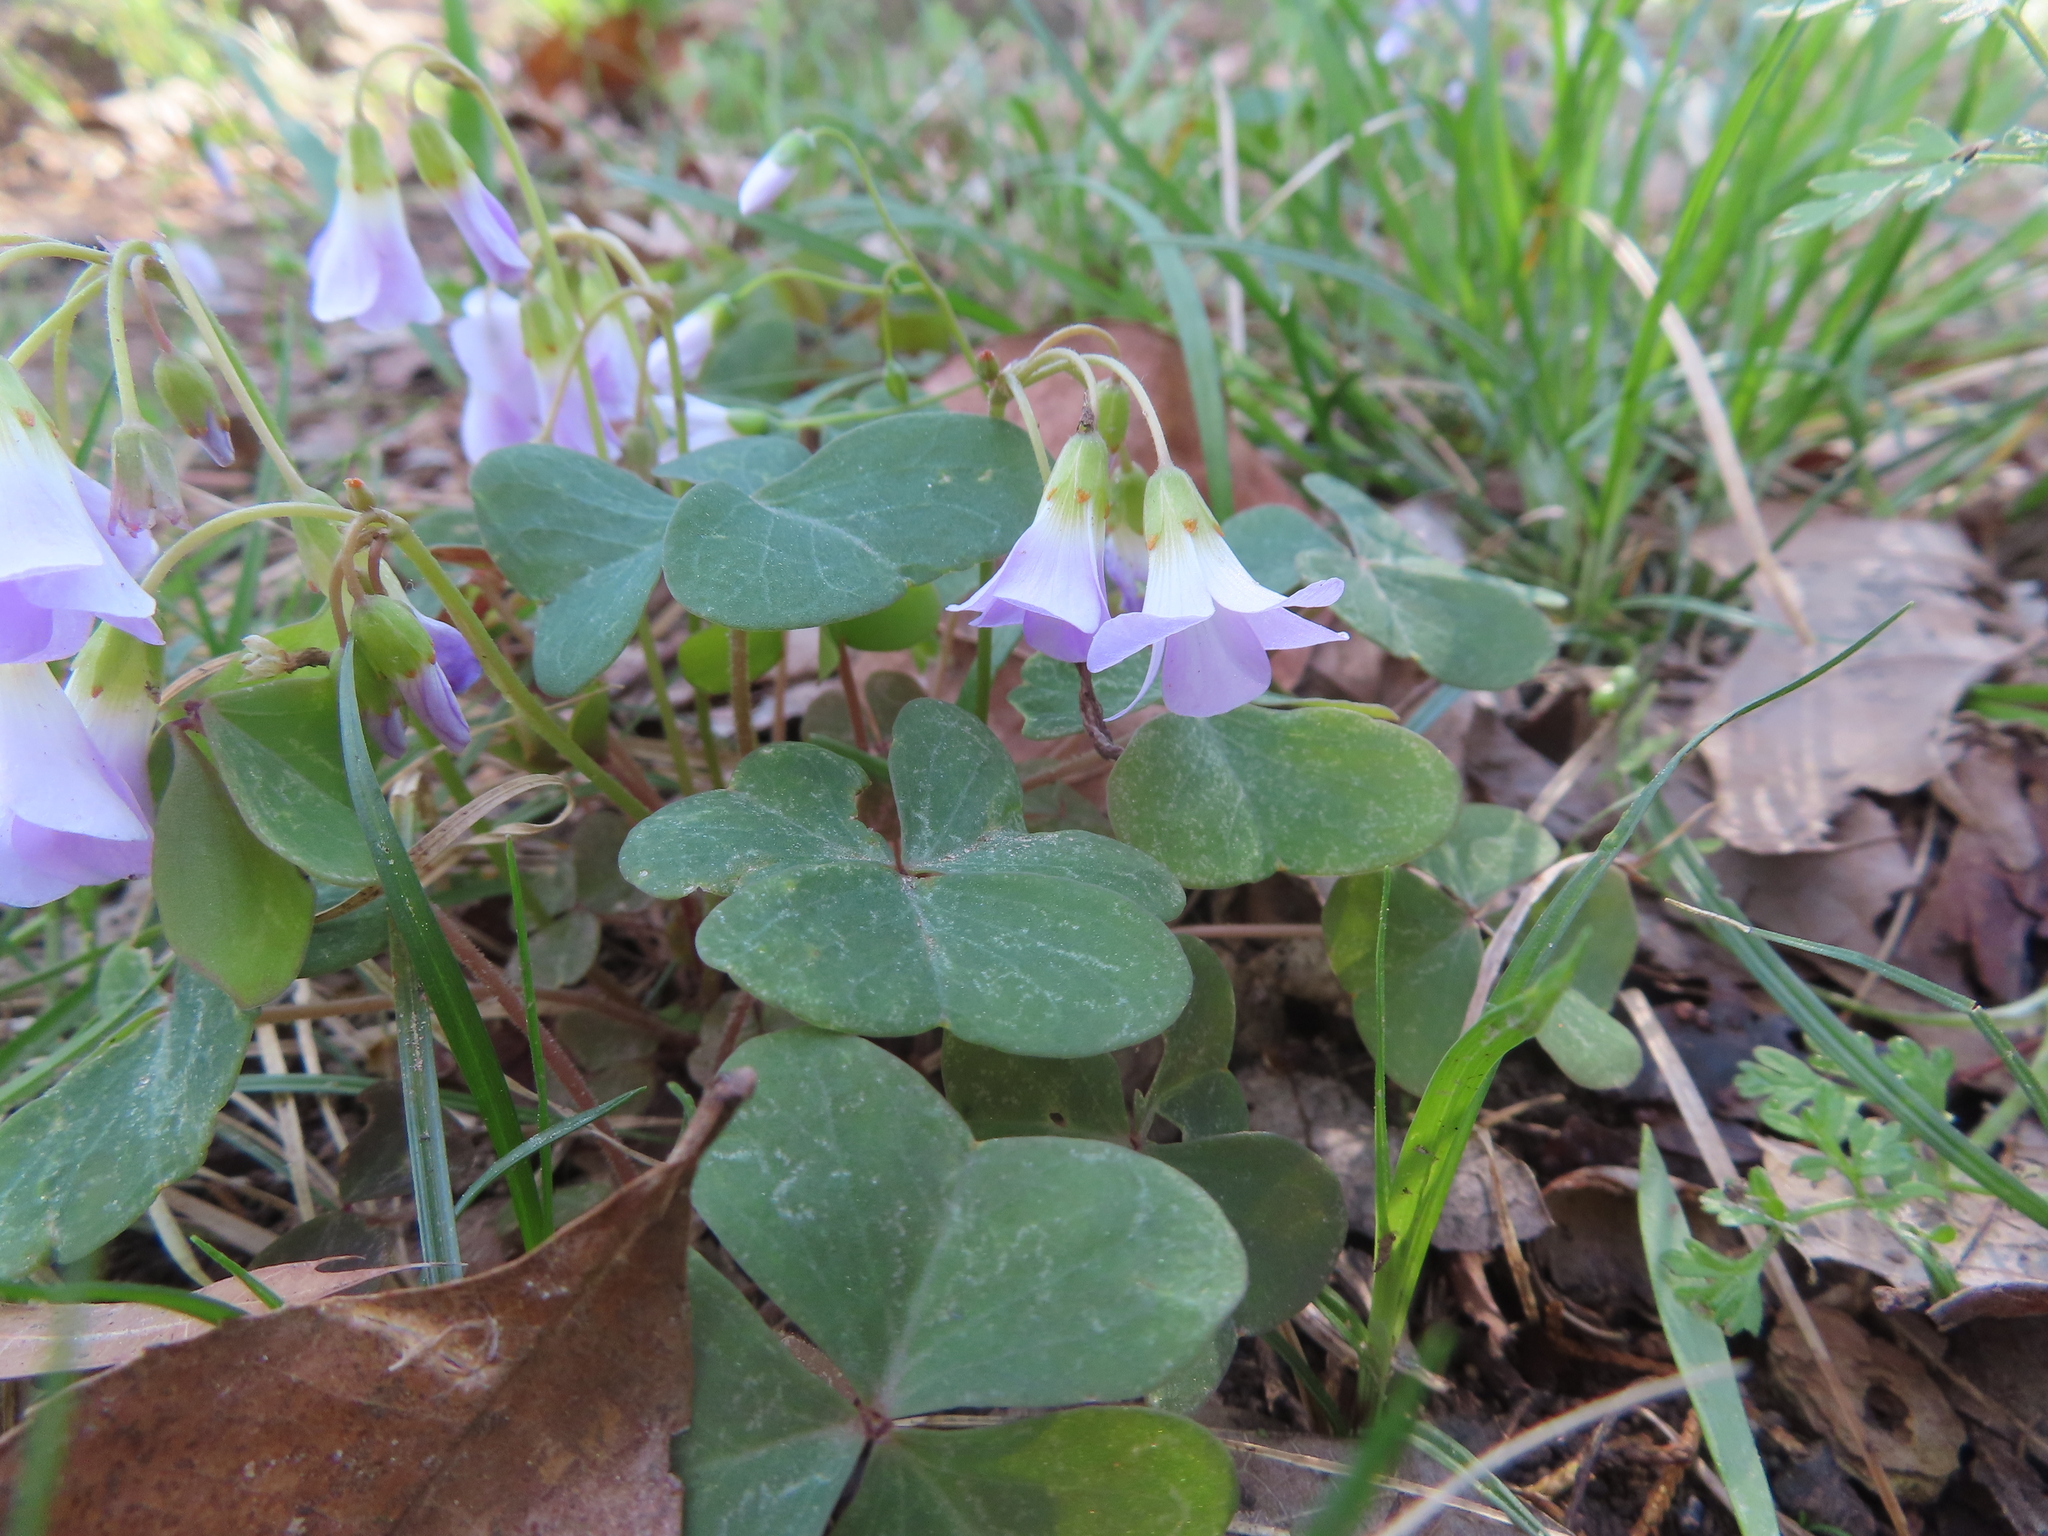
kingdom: Plantae
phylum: Tracheophyta
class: Magnoliopsida
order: Oxalidales
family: Oxalidaceae
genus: Oxalis
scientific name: Oxalis violacea
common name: Violet wood-sorrel
